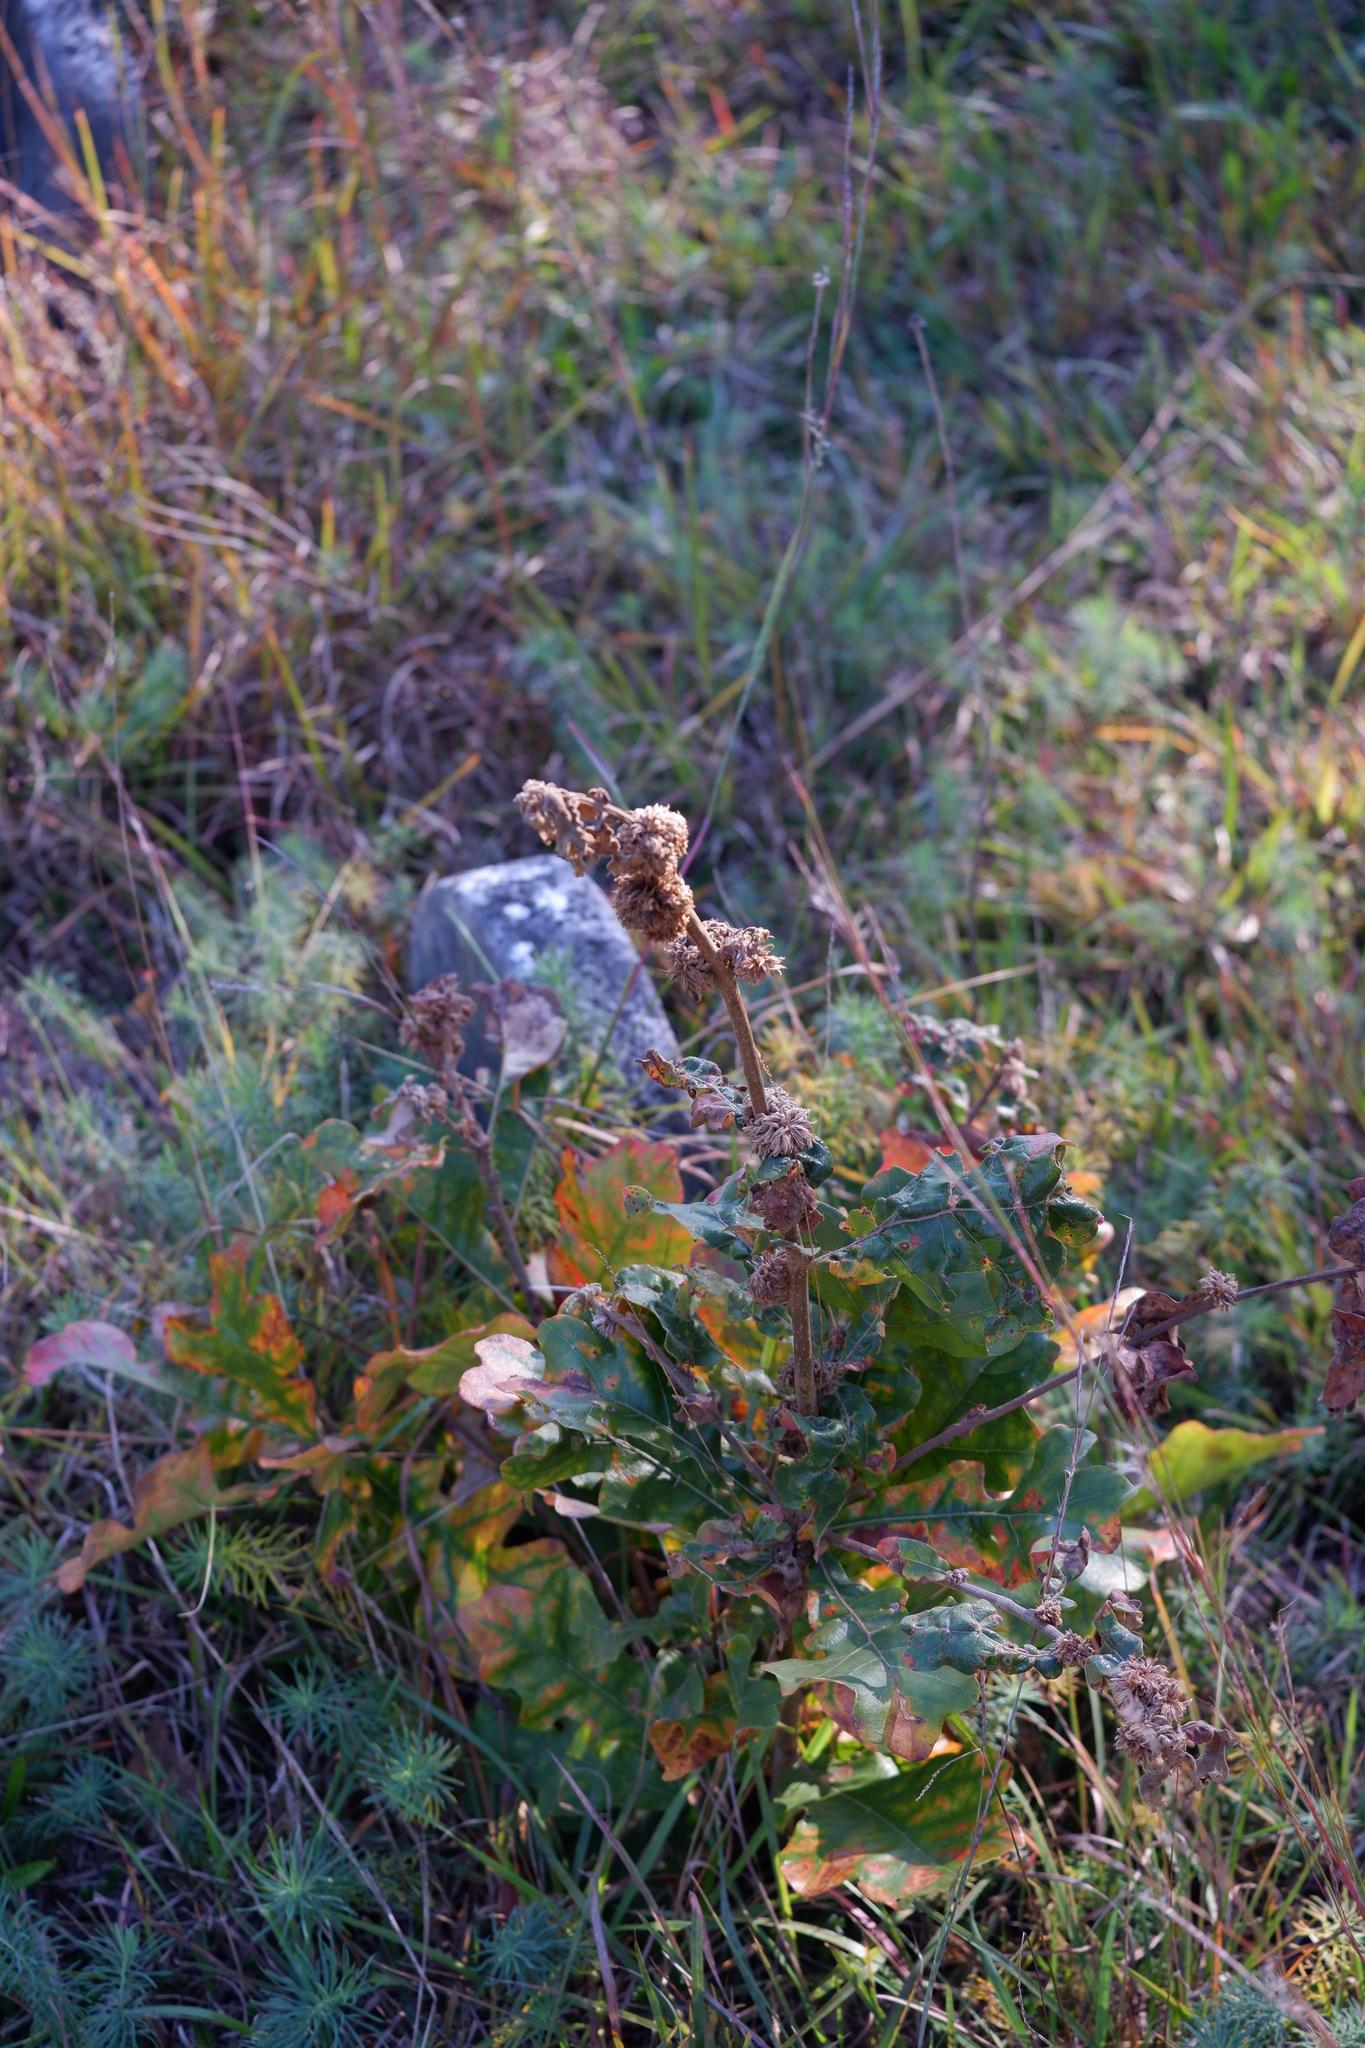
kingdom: Animalia
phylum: Arthropoda
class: Insecta
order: Hymenoptera
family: Cynipidae
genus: Andricus
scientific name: Andricus
